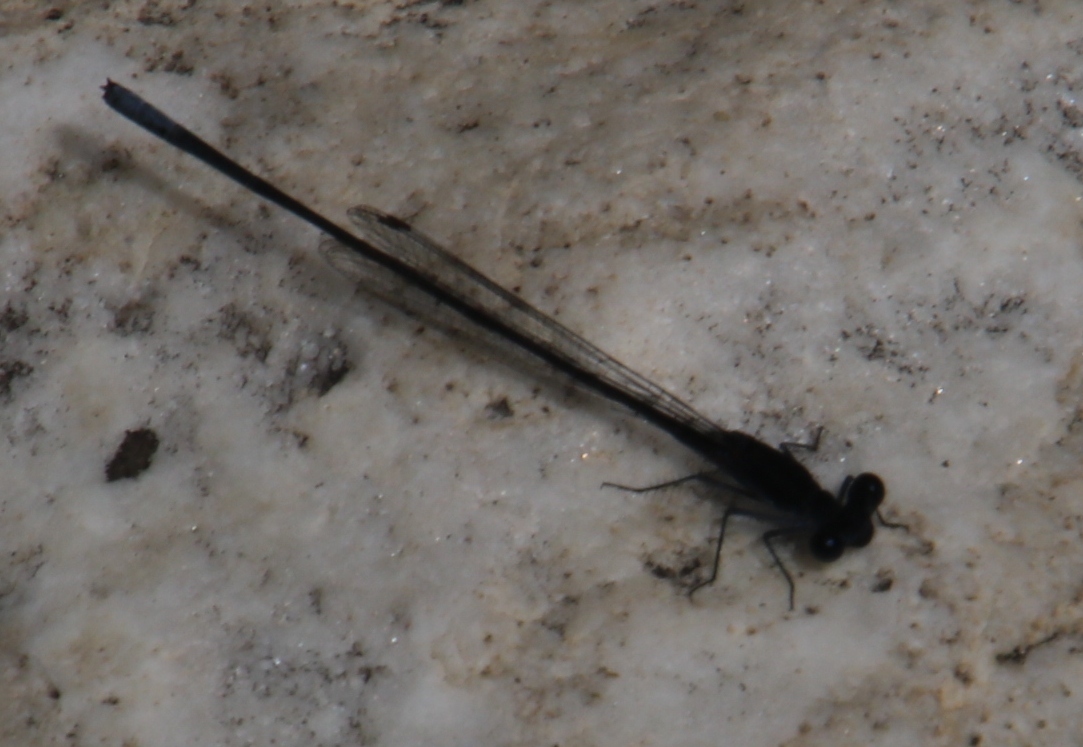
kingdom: Animalia
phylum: Arthropoda
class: Insecta
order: Odonata
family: Platycnemididae
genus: Elattoneura
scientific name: Elattoneura frenulata
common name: Sooty threadtail
